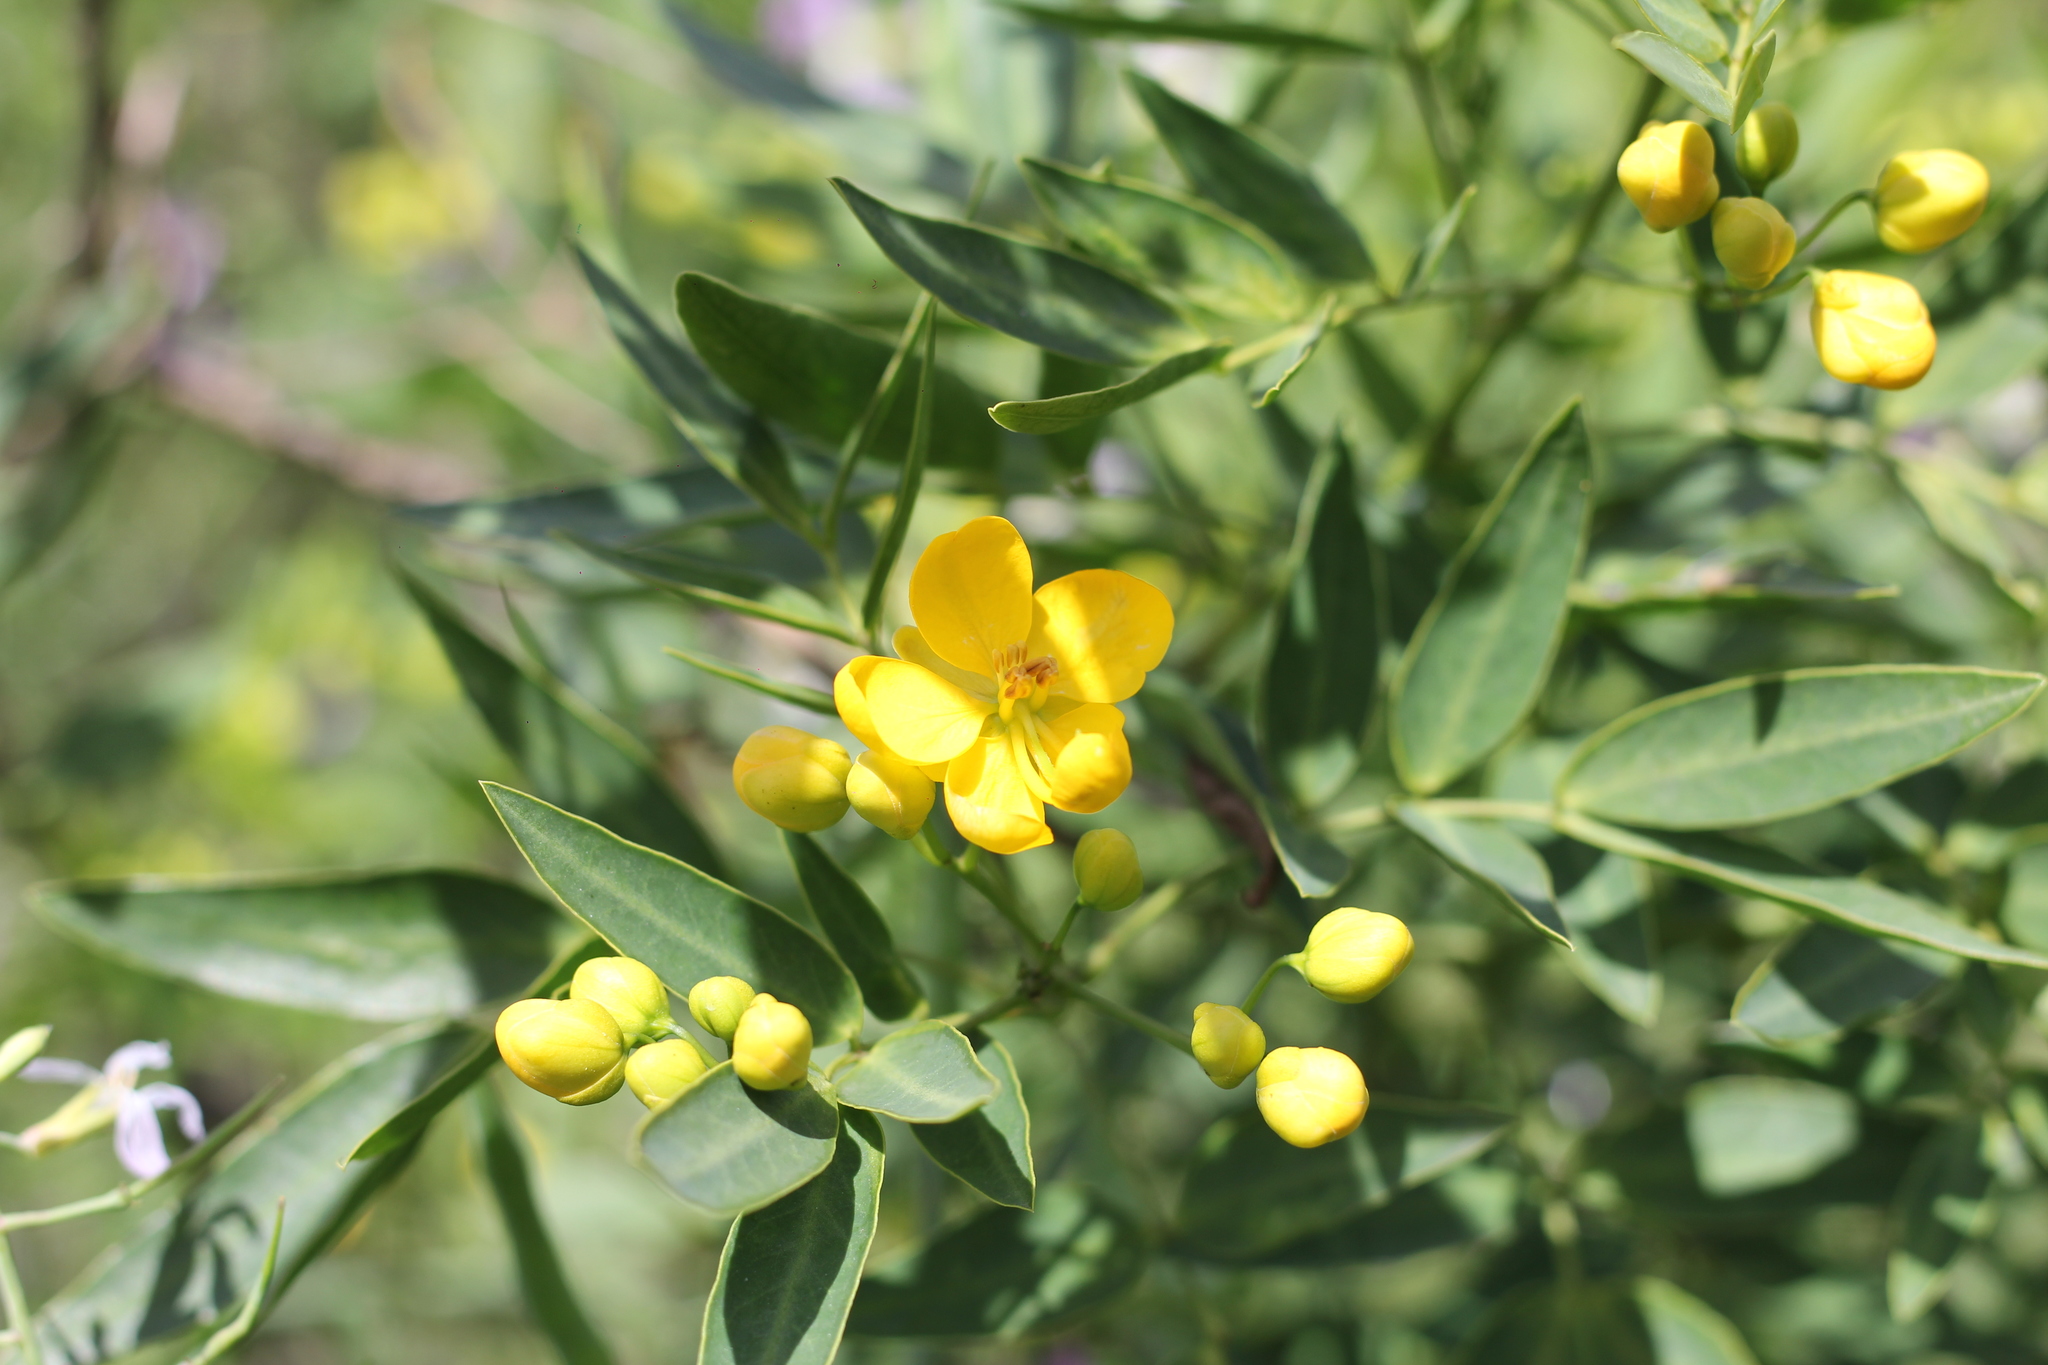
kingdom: Plantae
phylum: Tracheophyta
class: Magnoliopsida
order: Fabales
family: Fabaceae
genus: Senna
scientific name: Senna corymbosa
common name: Argentine senna
